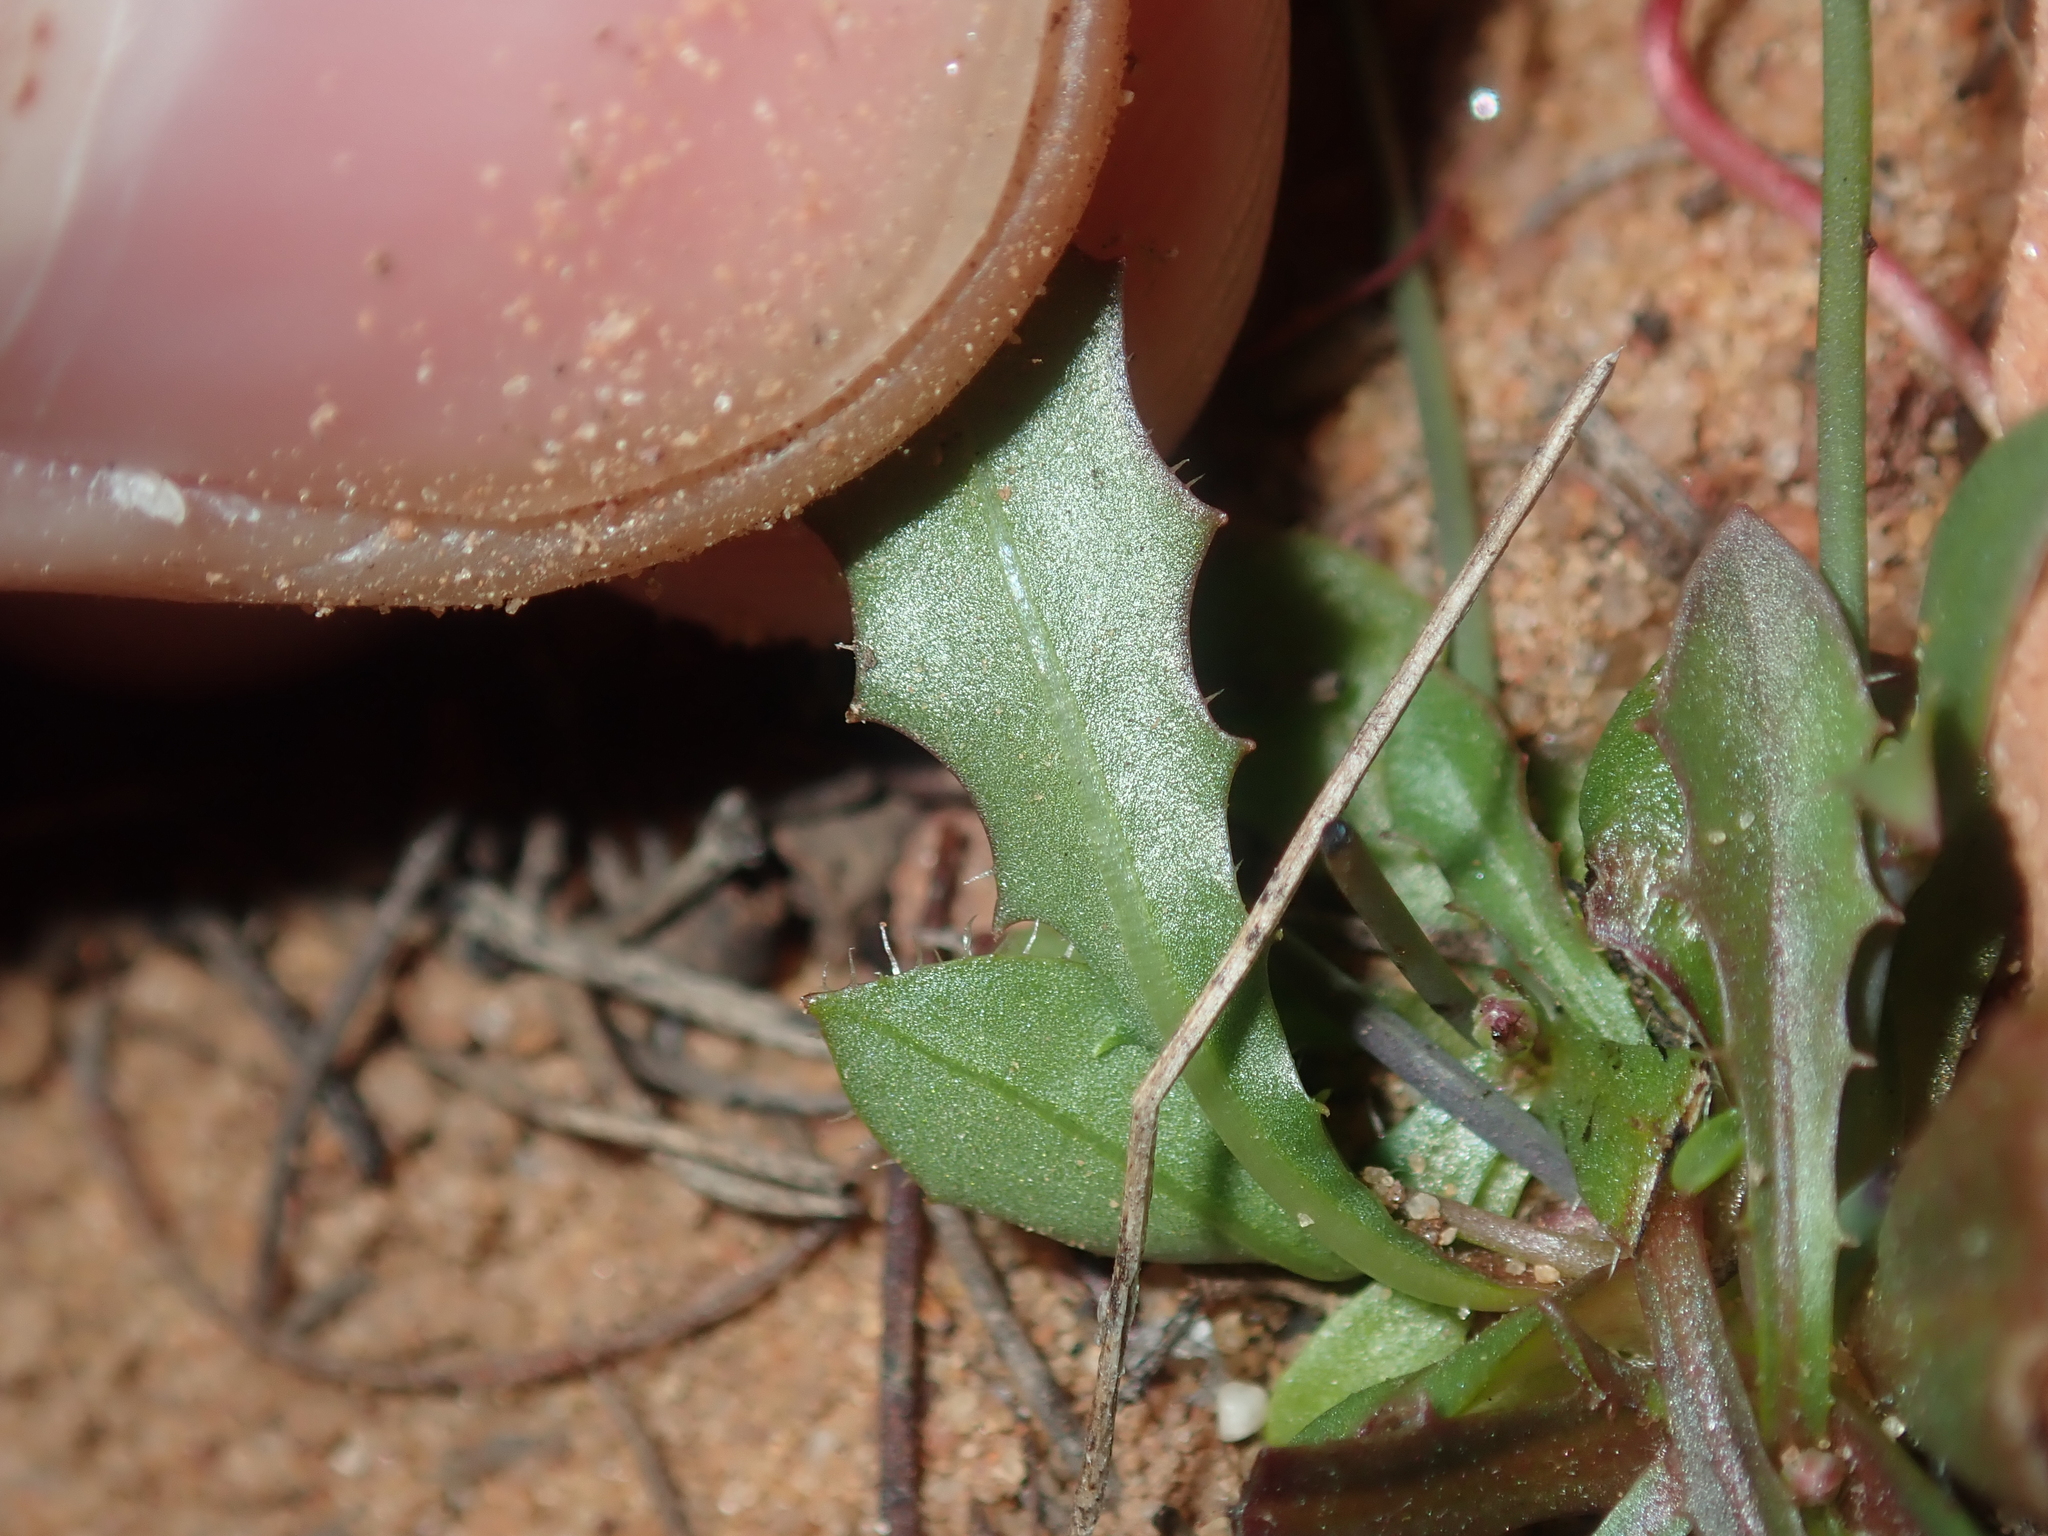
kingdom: Plantae
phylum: Tracheophyta
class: Magnoliopsida
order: Asterales
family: Asteraceae
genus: Hypochaeris
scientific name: Hypochaeris glabra
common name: Smooth catsear
